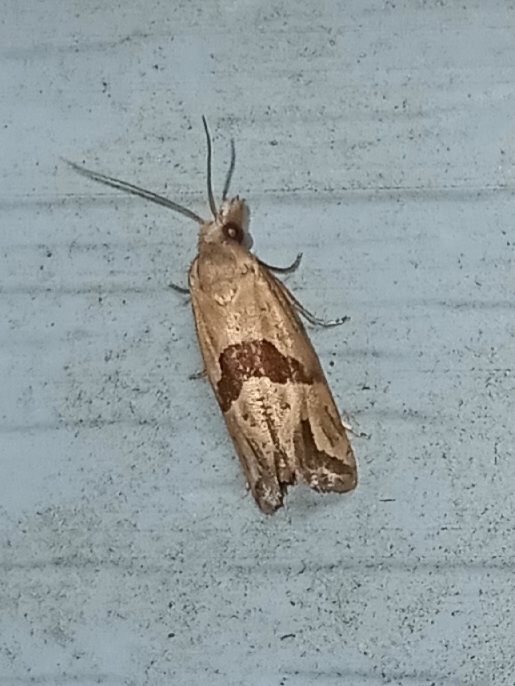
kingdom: Animalia
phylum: Arthropoda
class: Insecta
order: Lepidoptera
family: Tortricidae
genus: Eugnosta
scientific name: Eugnosta sartana
